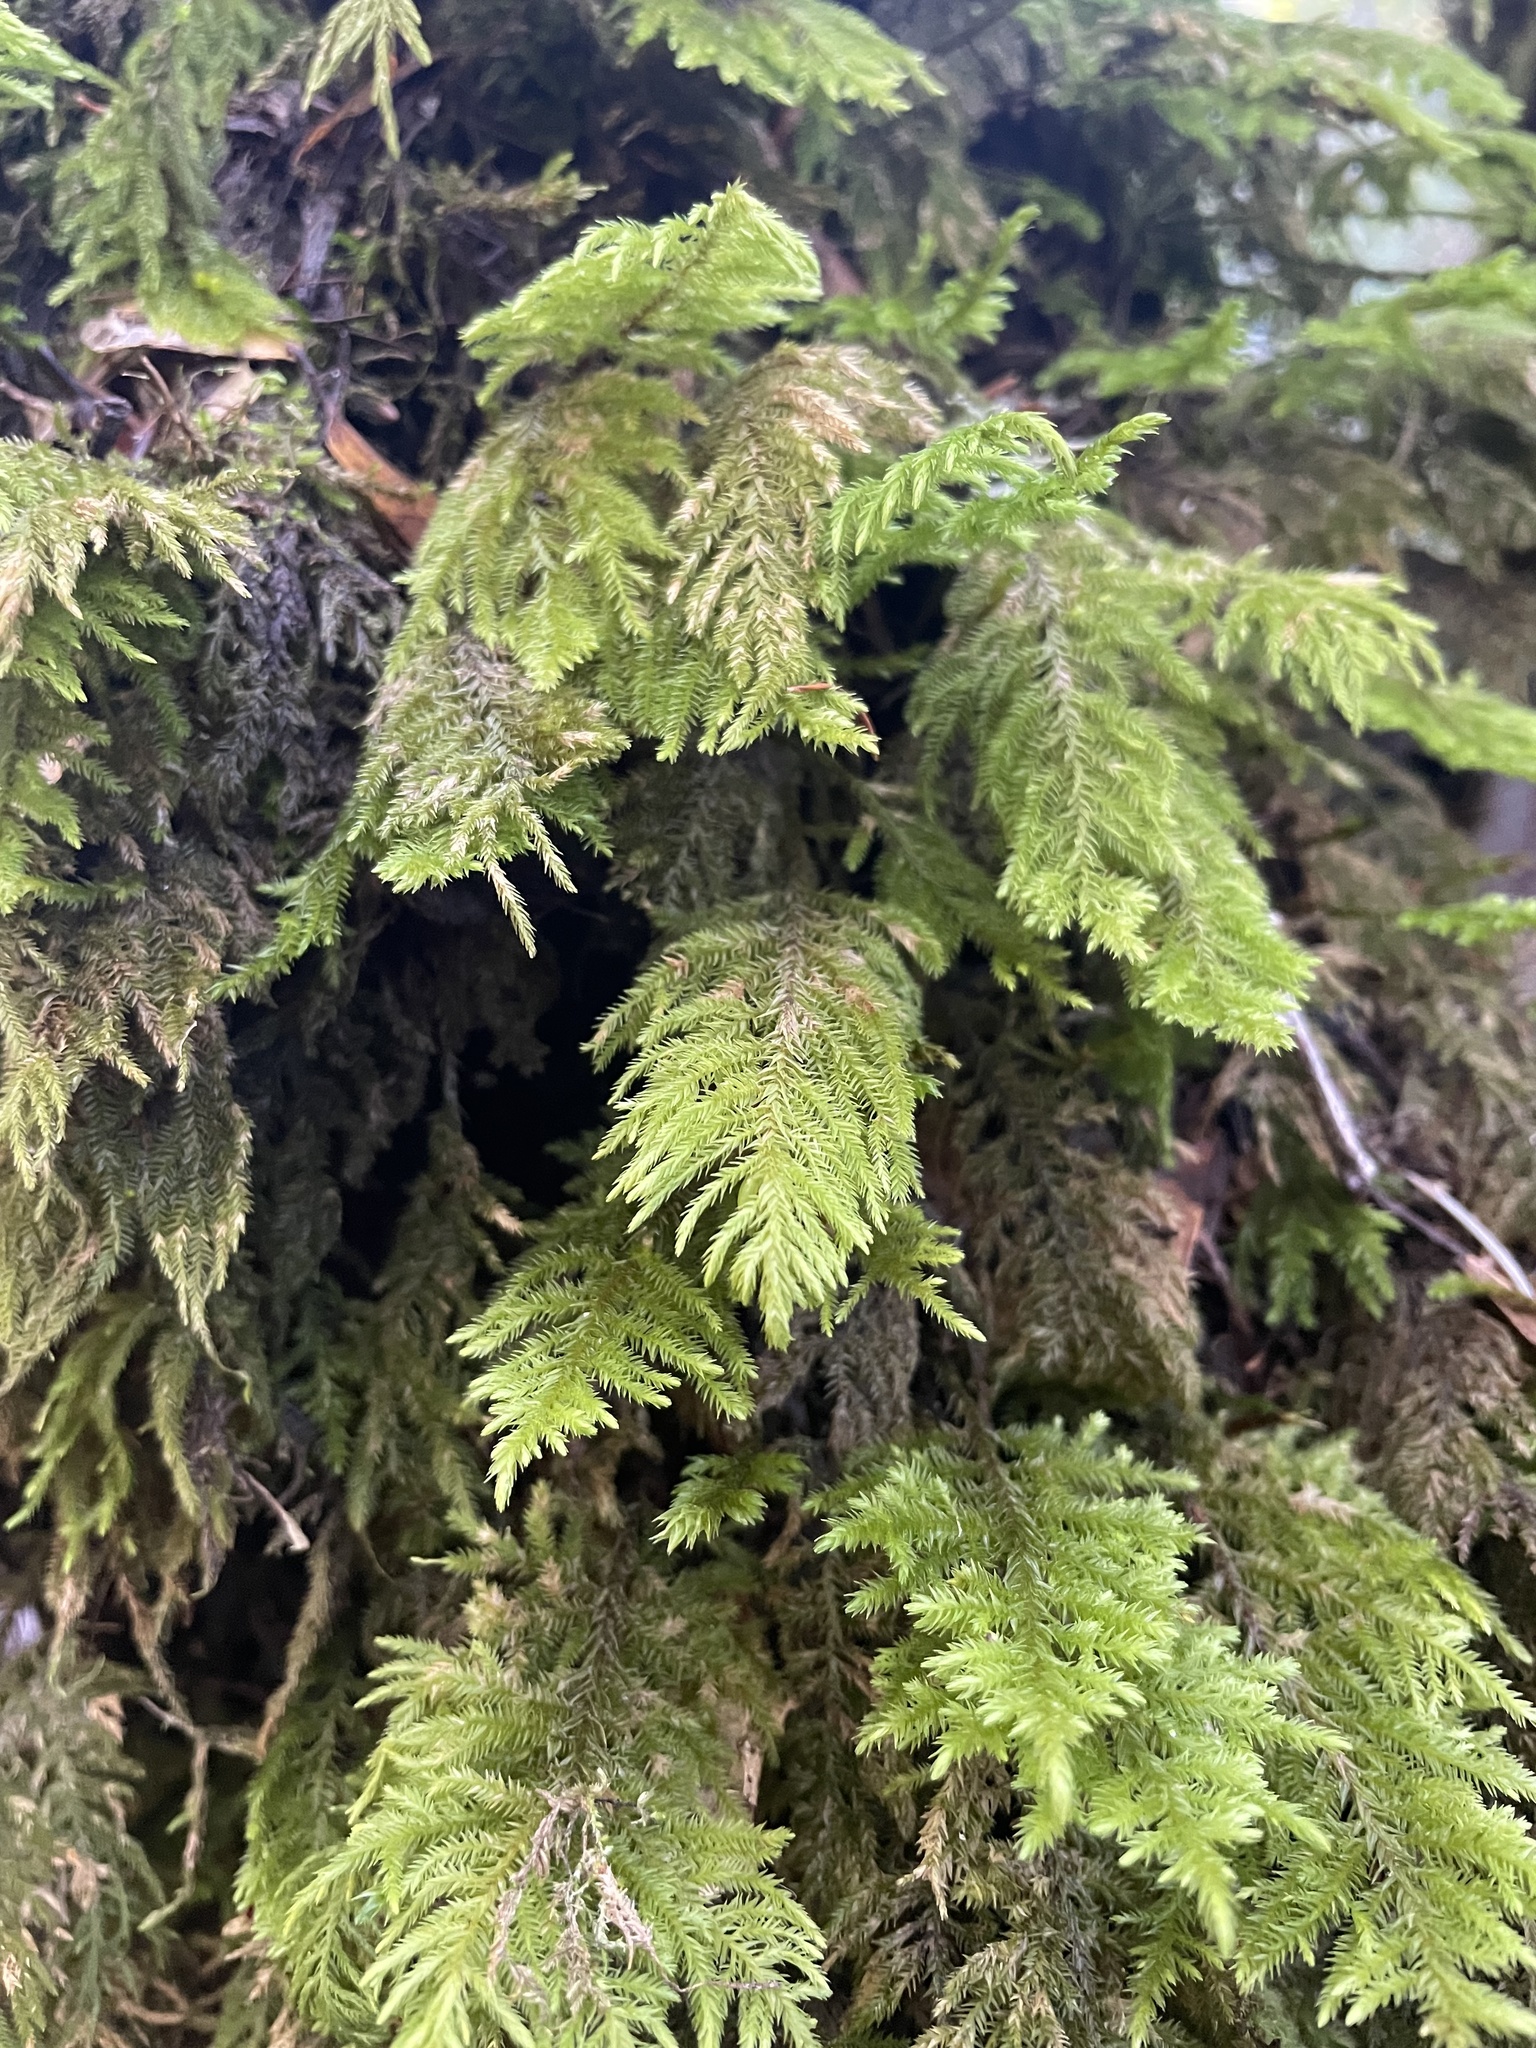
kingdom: Plantae
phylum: Bryophyta
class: Bryopsida
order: Hypnales
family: Cryphaeaceae
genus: Dendroalsia
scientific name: Dendroalsia abietina
